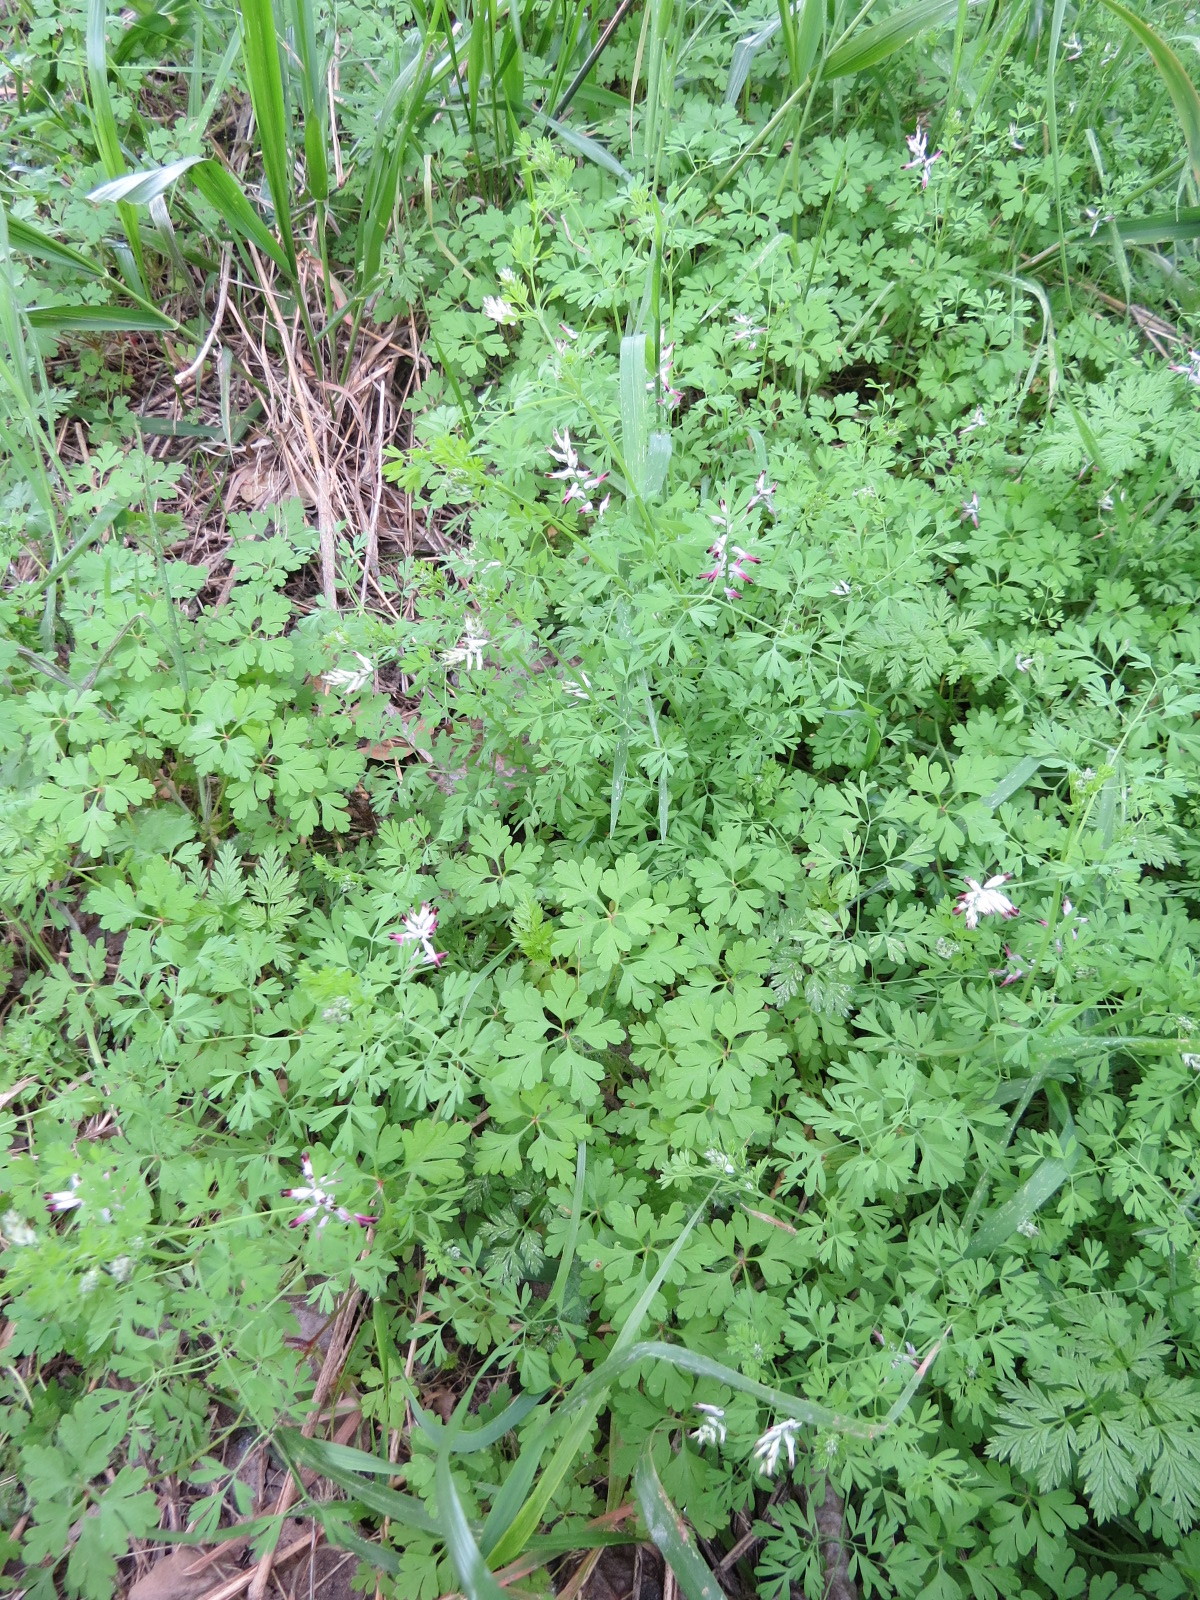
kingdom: Plantae
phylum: Tracheophyta
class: Magnoliopsida
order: Ranunculales
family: Papaveraceae
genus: Fumaria
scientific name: Fumaria muralis
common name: Common ramping-fumitory
